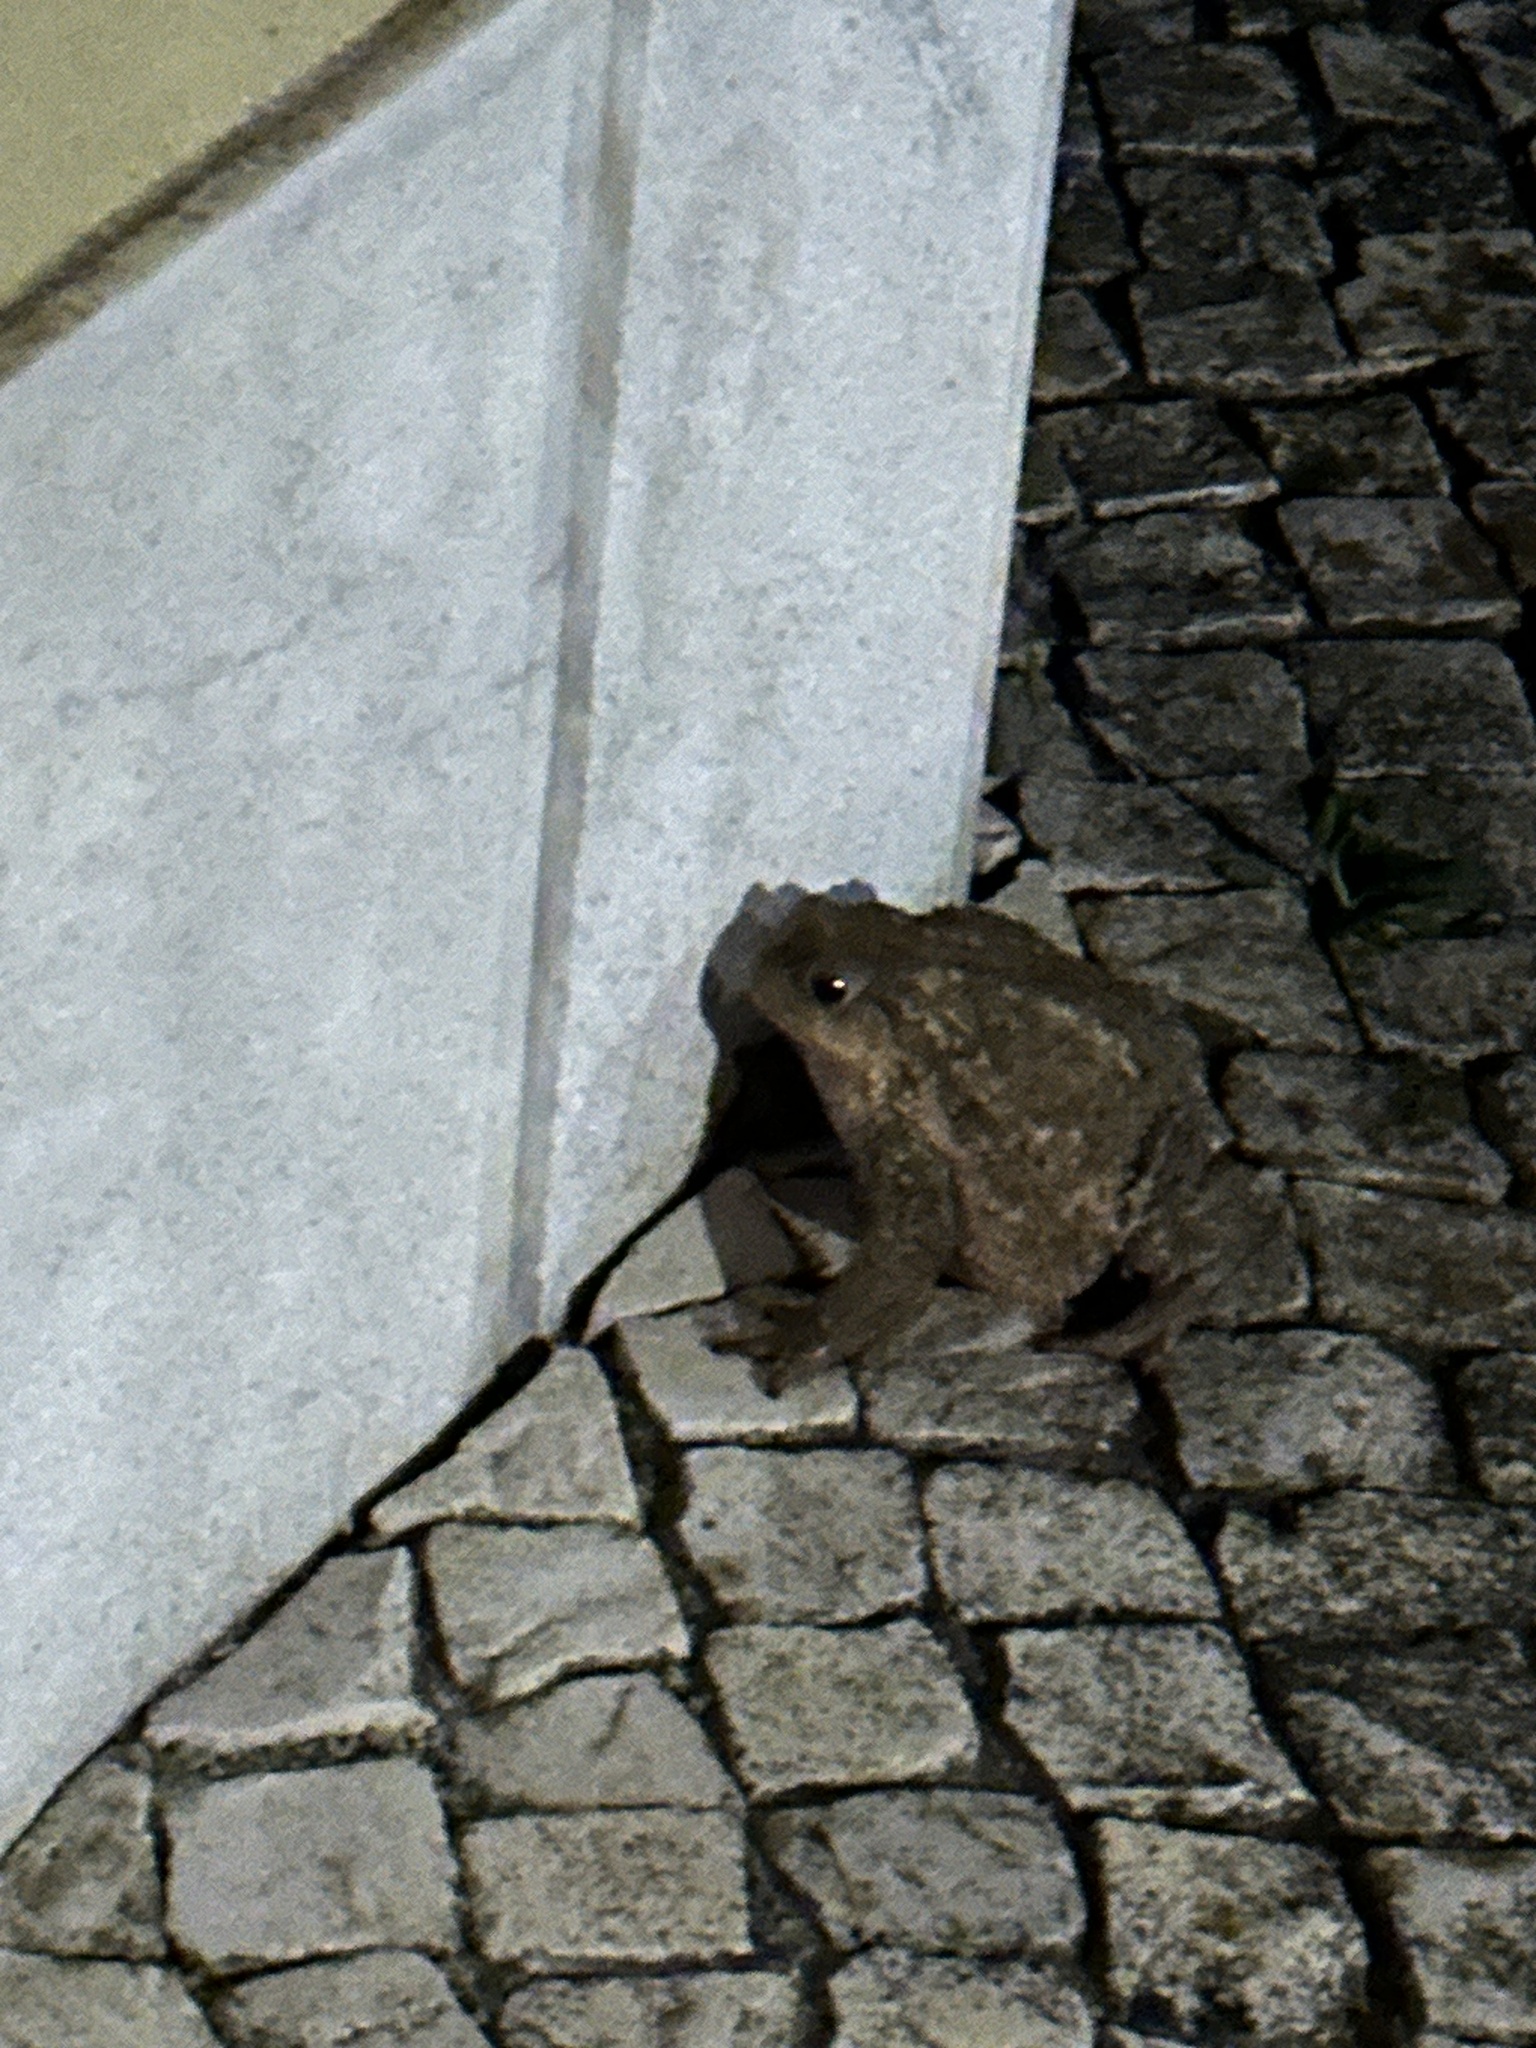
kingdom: Animalia
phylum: Chordata
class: Amphibia
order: Anura
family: Bufonidae
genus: Bufo
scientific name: Bufo spinosus
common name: Western common toad
